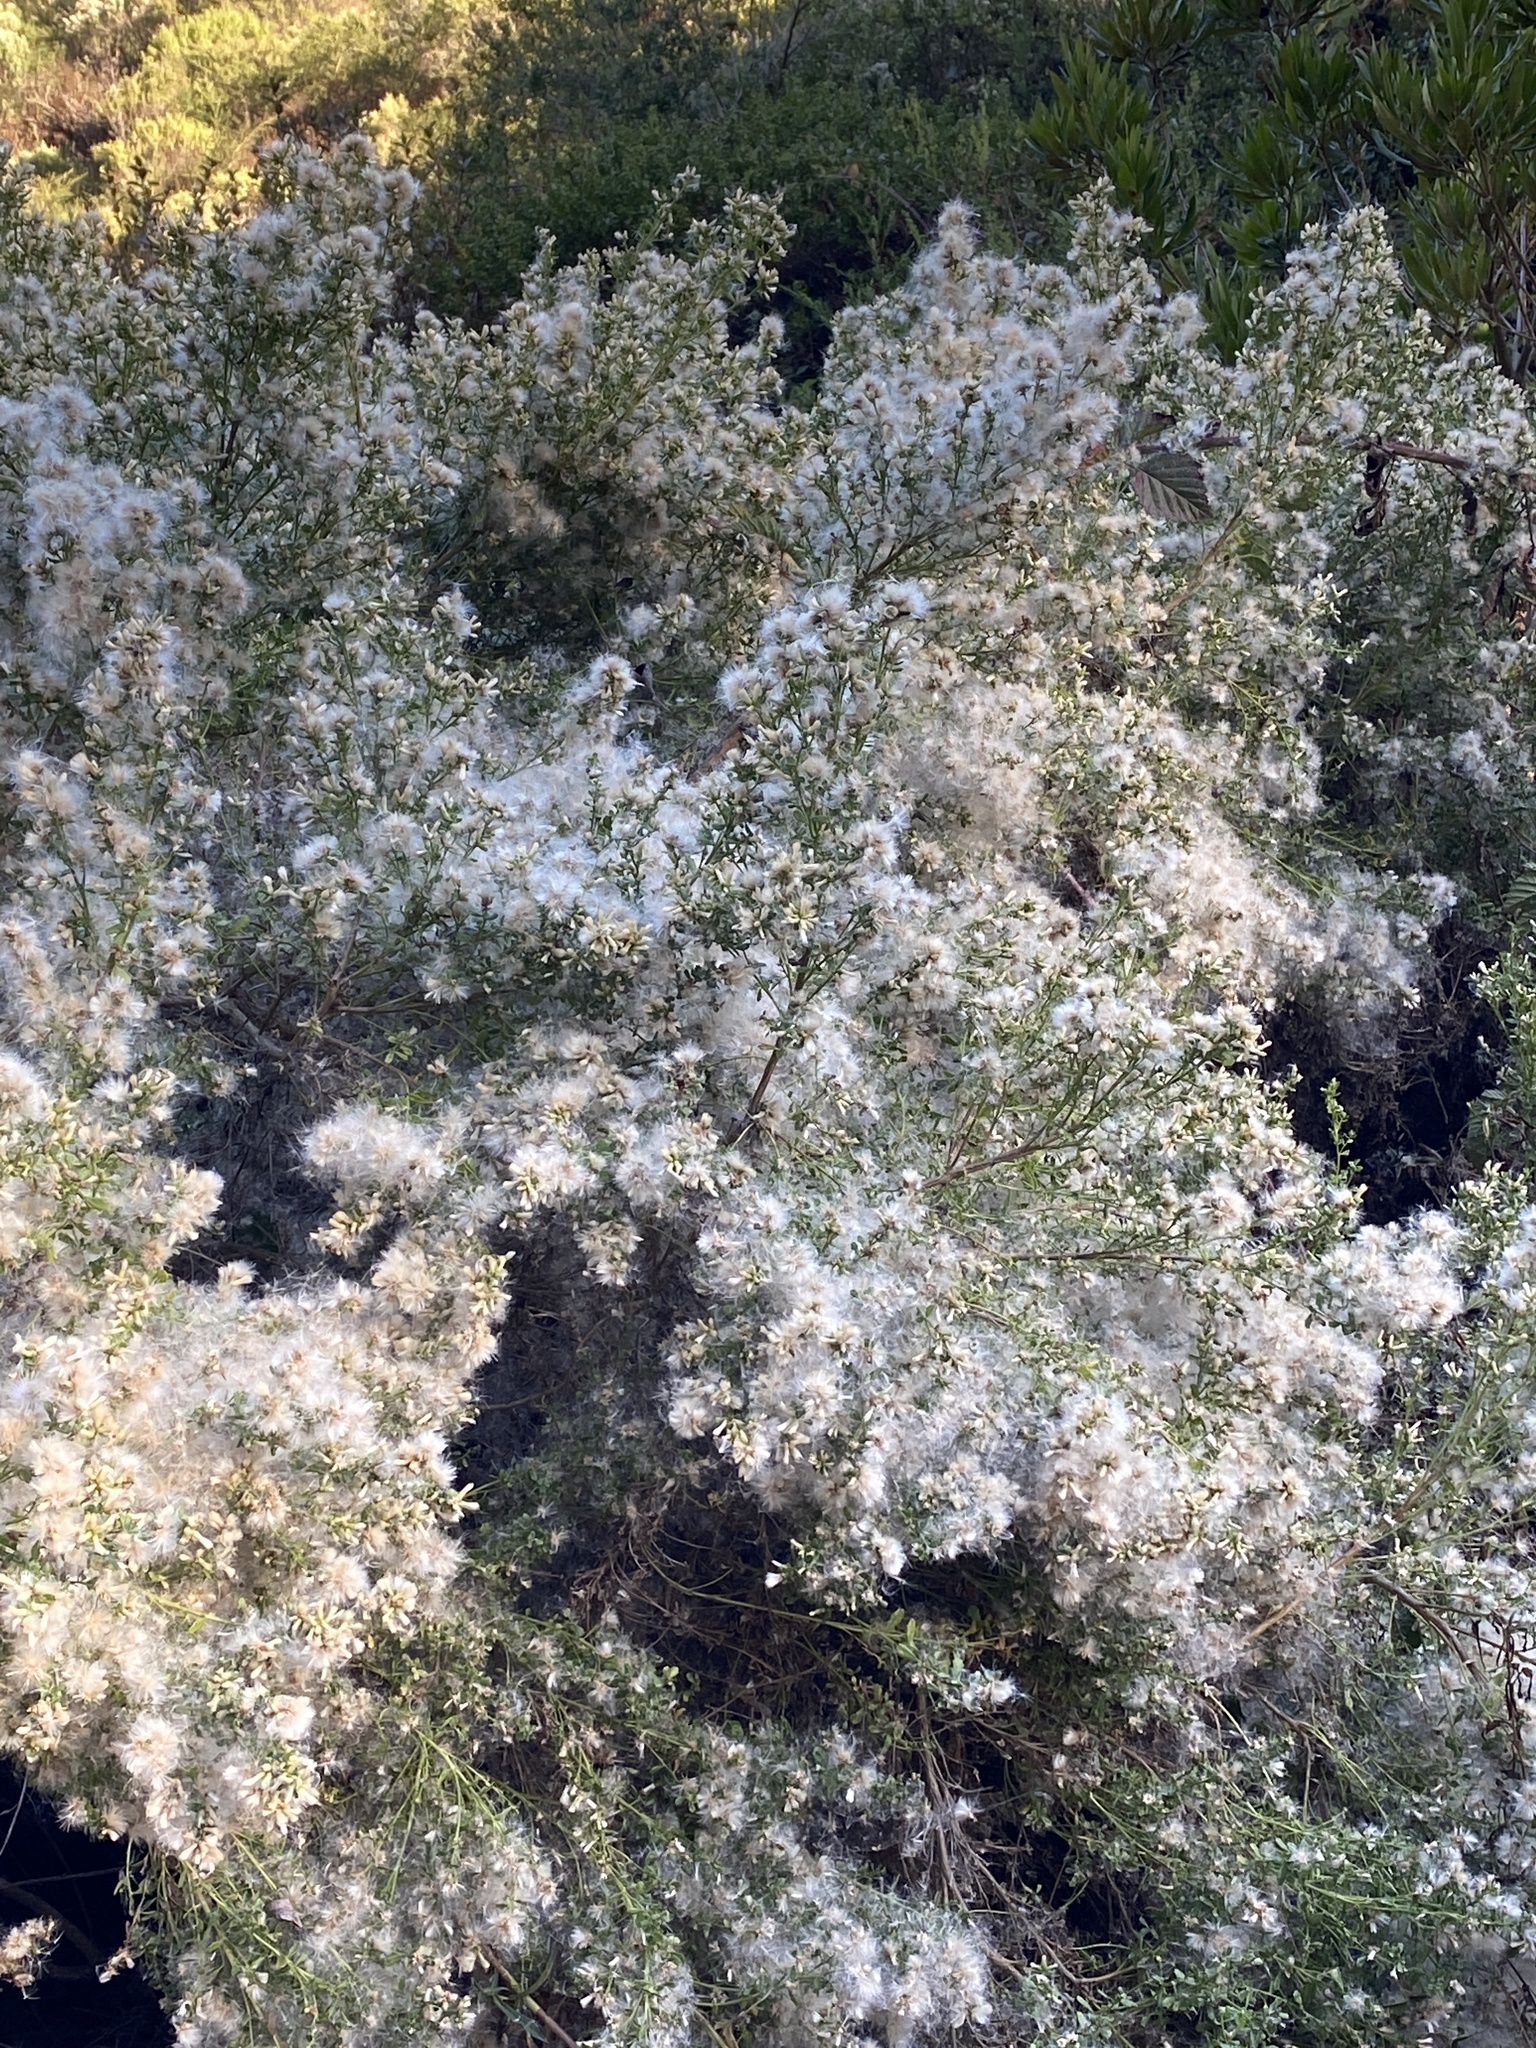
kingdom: Plantae
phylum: Tracheophyta
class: Magnoliopsida
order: Asterales
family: Asteraceae
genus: Baccharis
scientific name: Baccharis pilularis
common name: Coyotebrush
